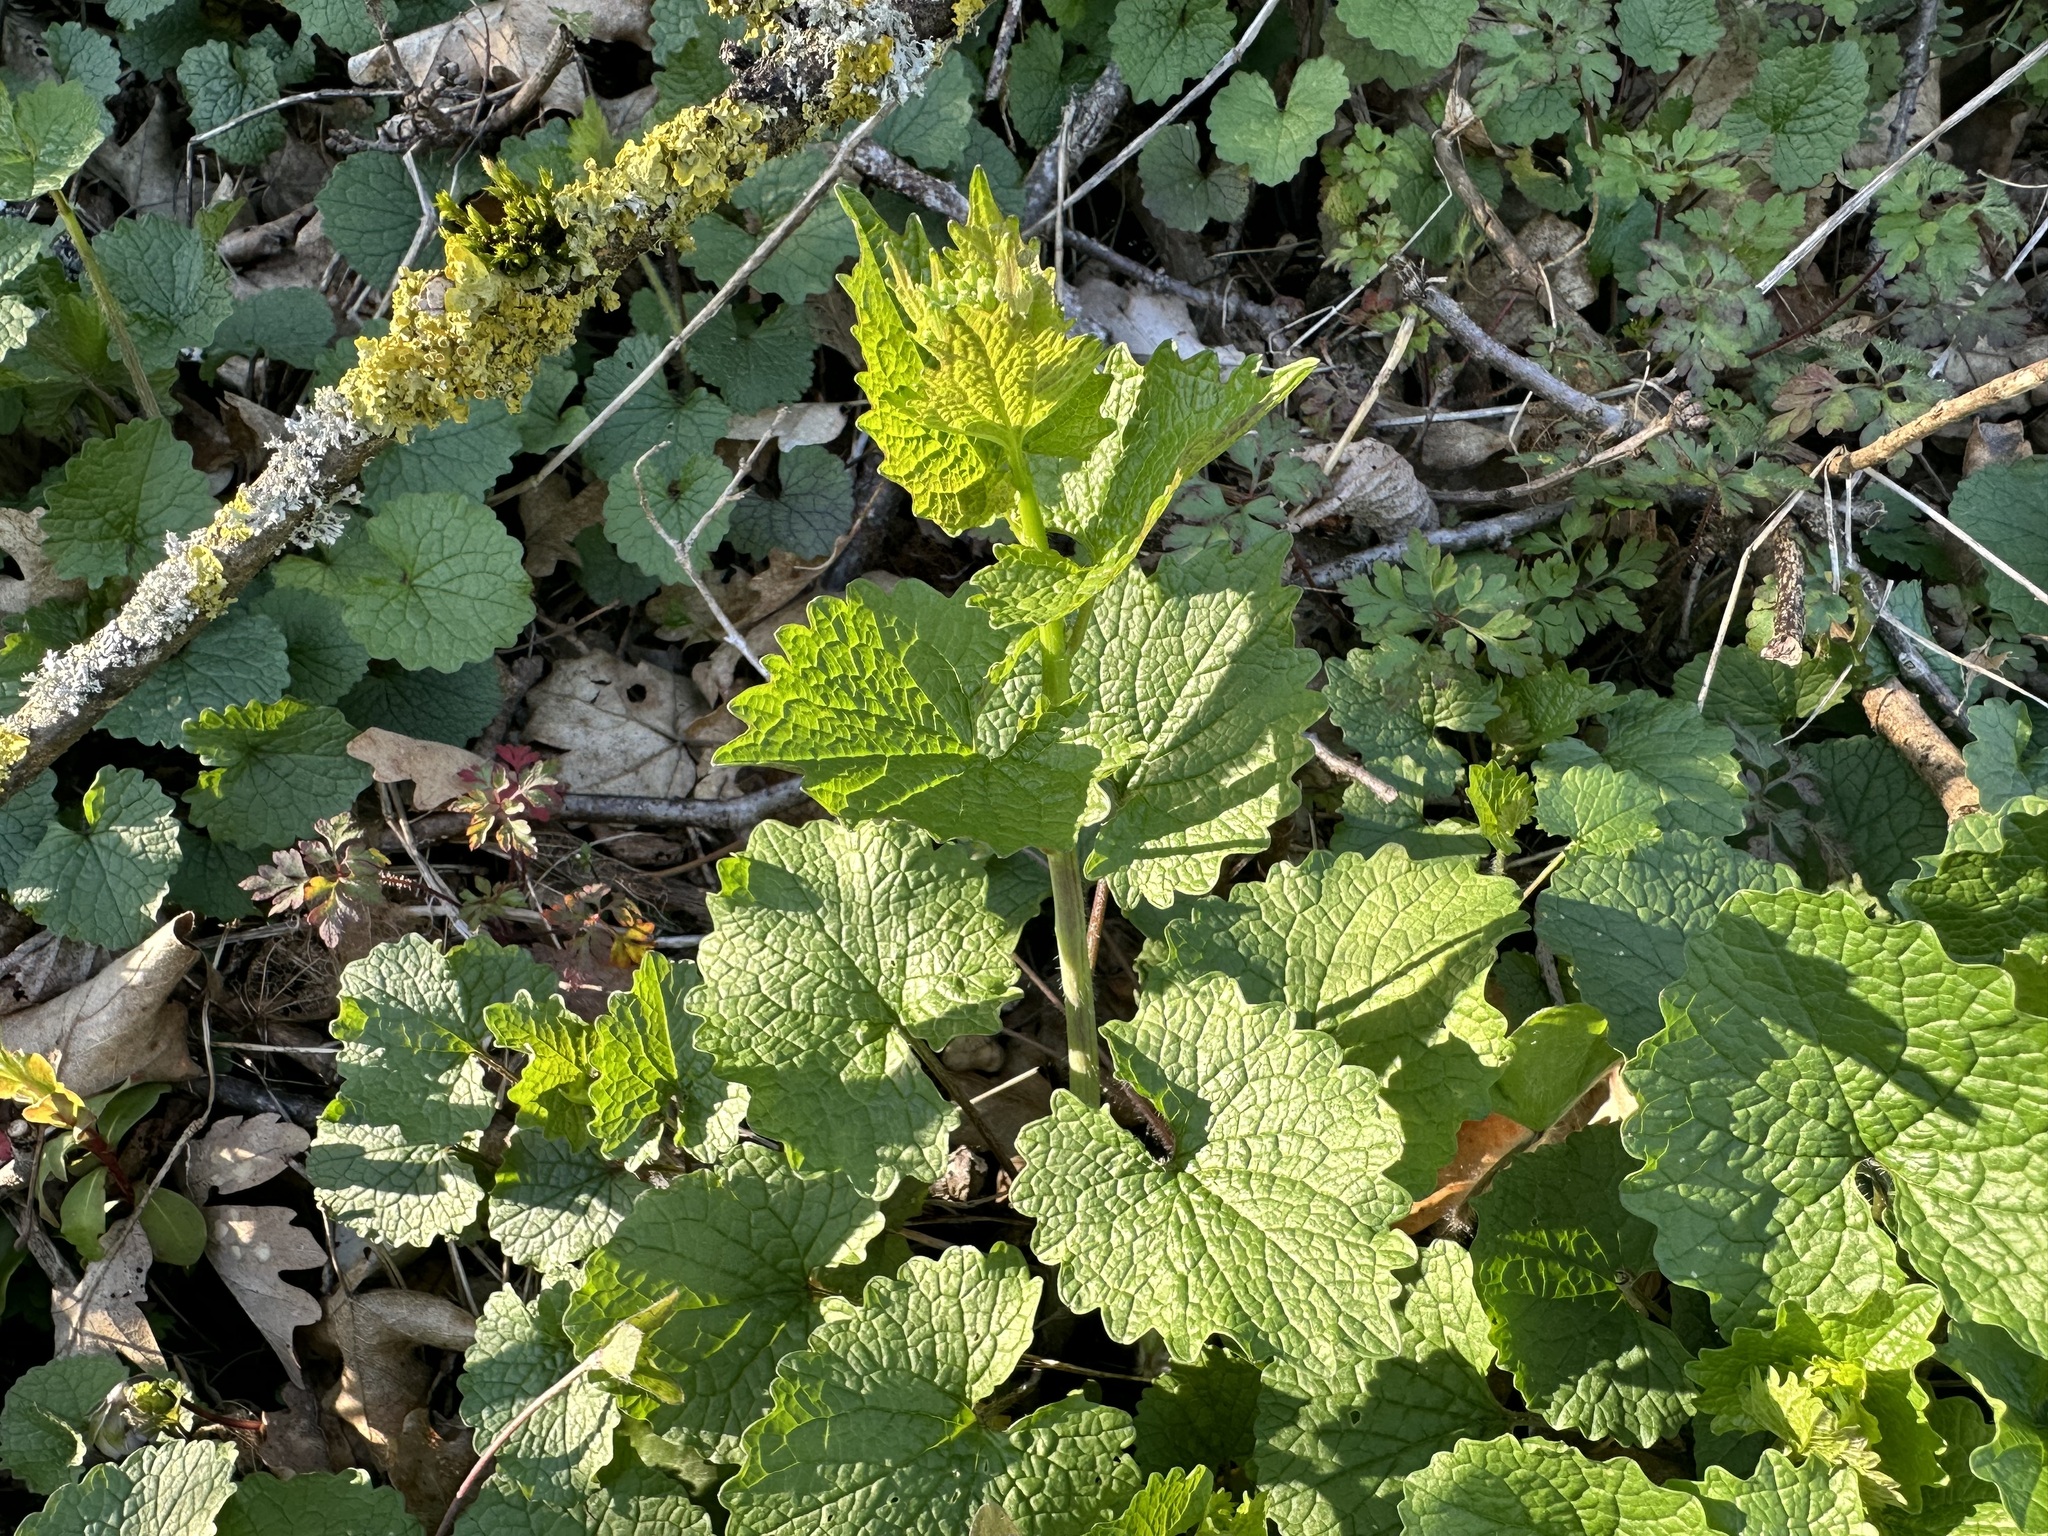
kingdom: Plantae
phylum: Tracheophyta
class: Magnoliopsida
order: Brassicales
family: Brassicaceae
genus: Alliaria
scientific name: Alliaria petiolata
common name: Garlic mustard
